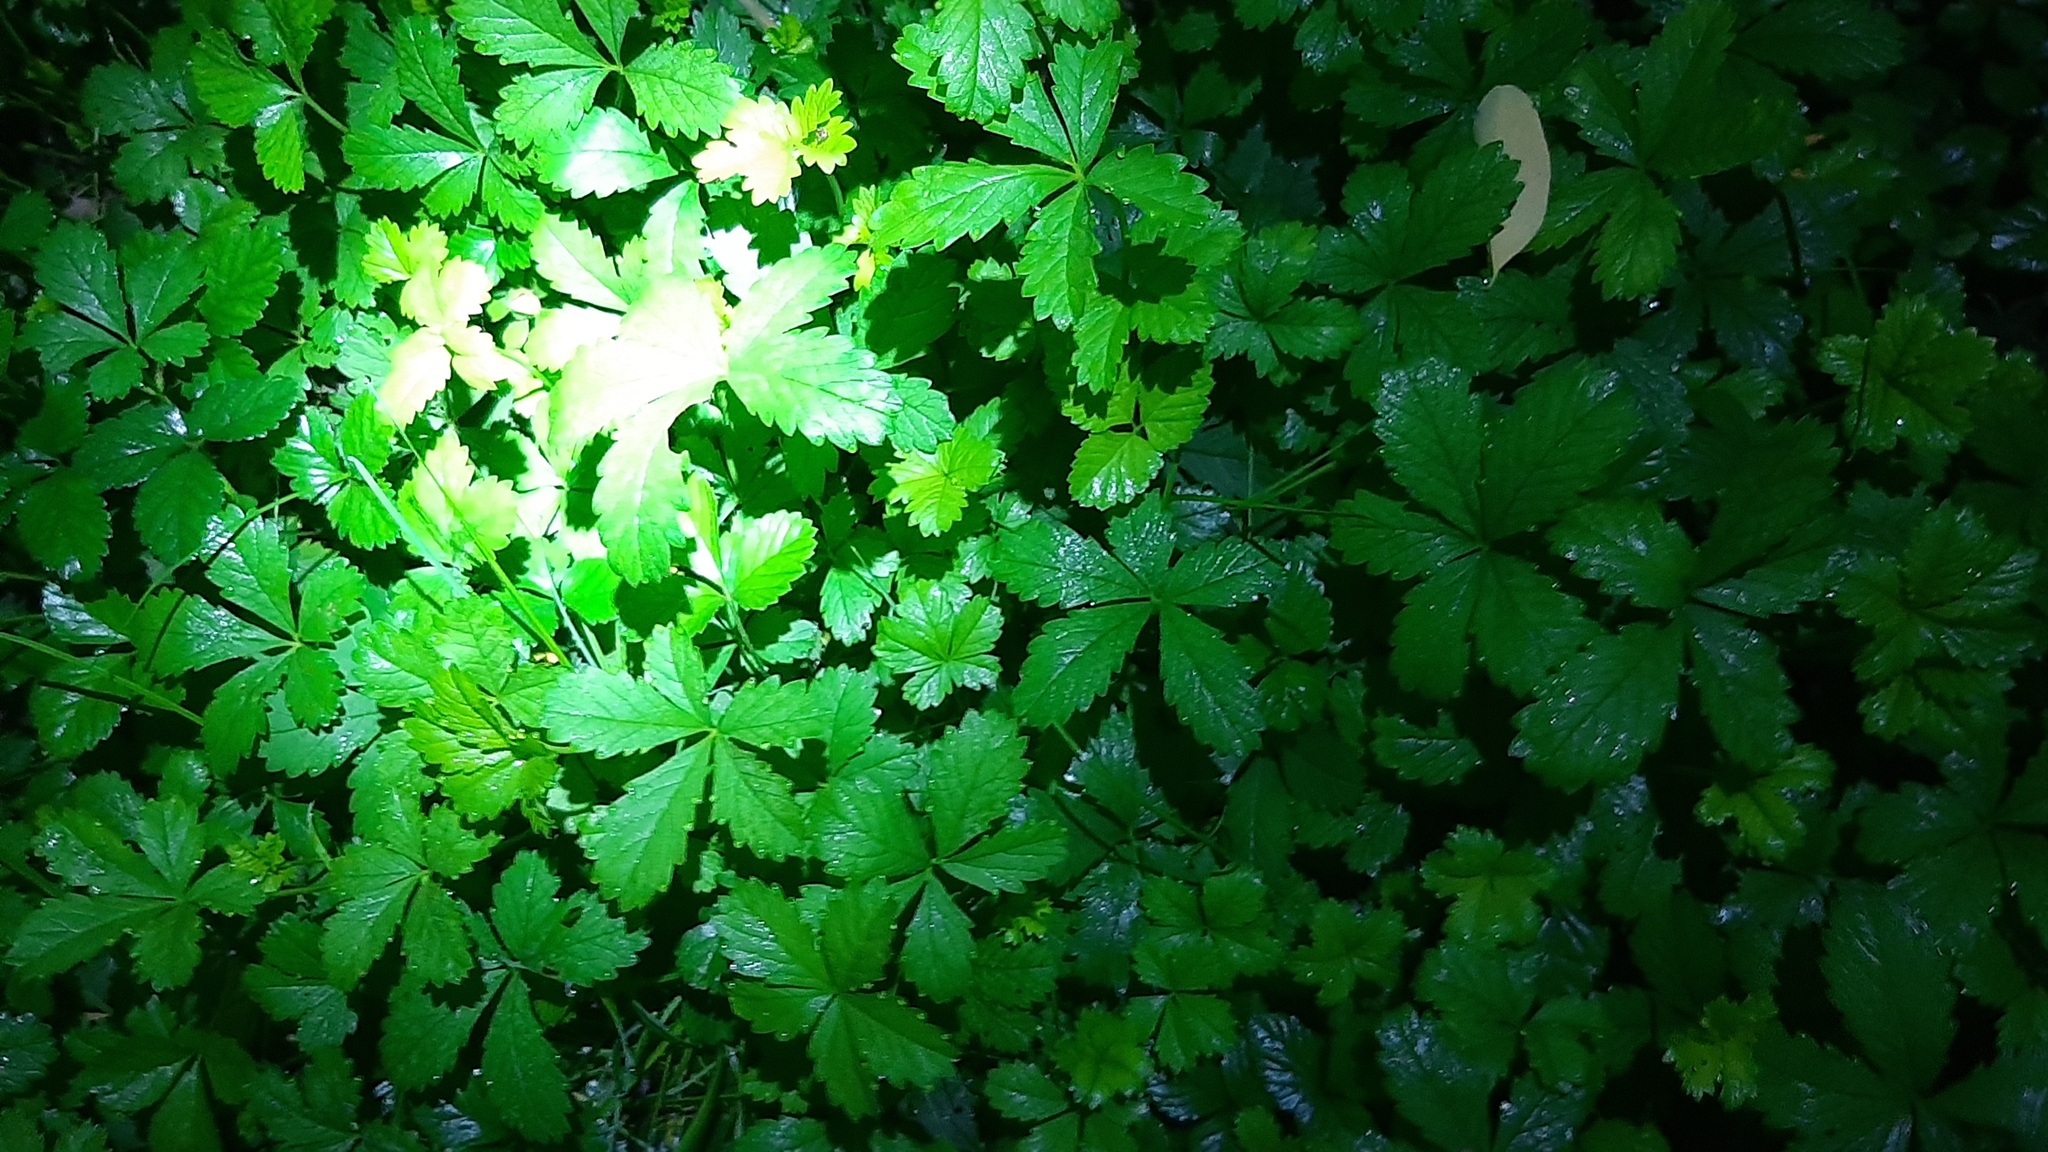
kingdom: Plantae
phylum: Tracheophyta
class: Magnoliopsida
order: Rosales
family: Rosaceae
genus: Potentilla
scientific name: Potentilla reptans
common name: Creeping cinquefoil
